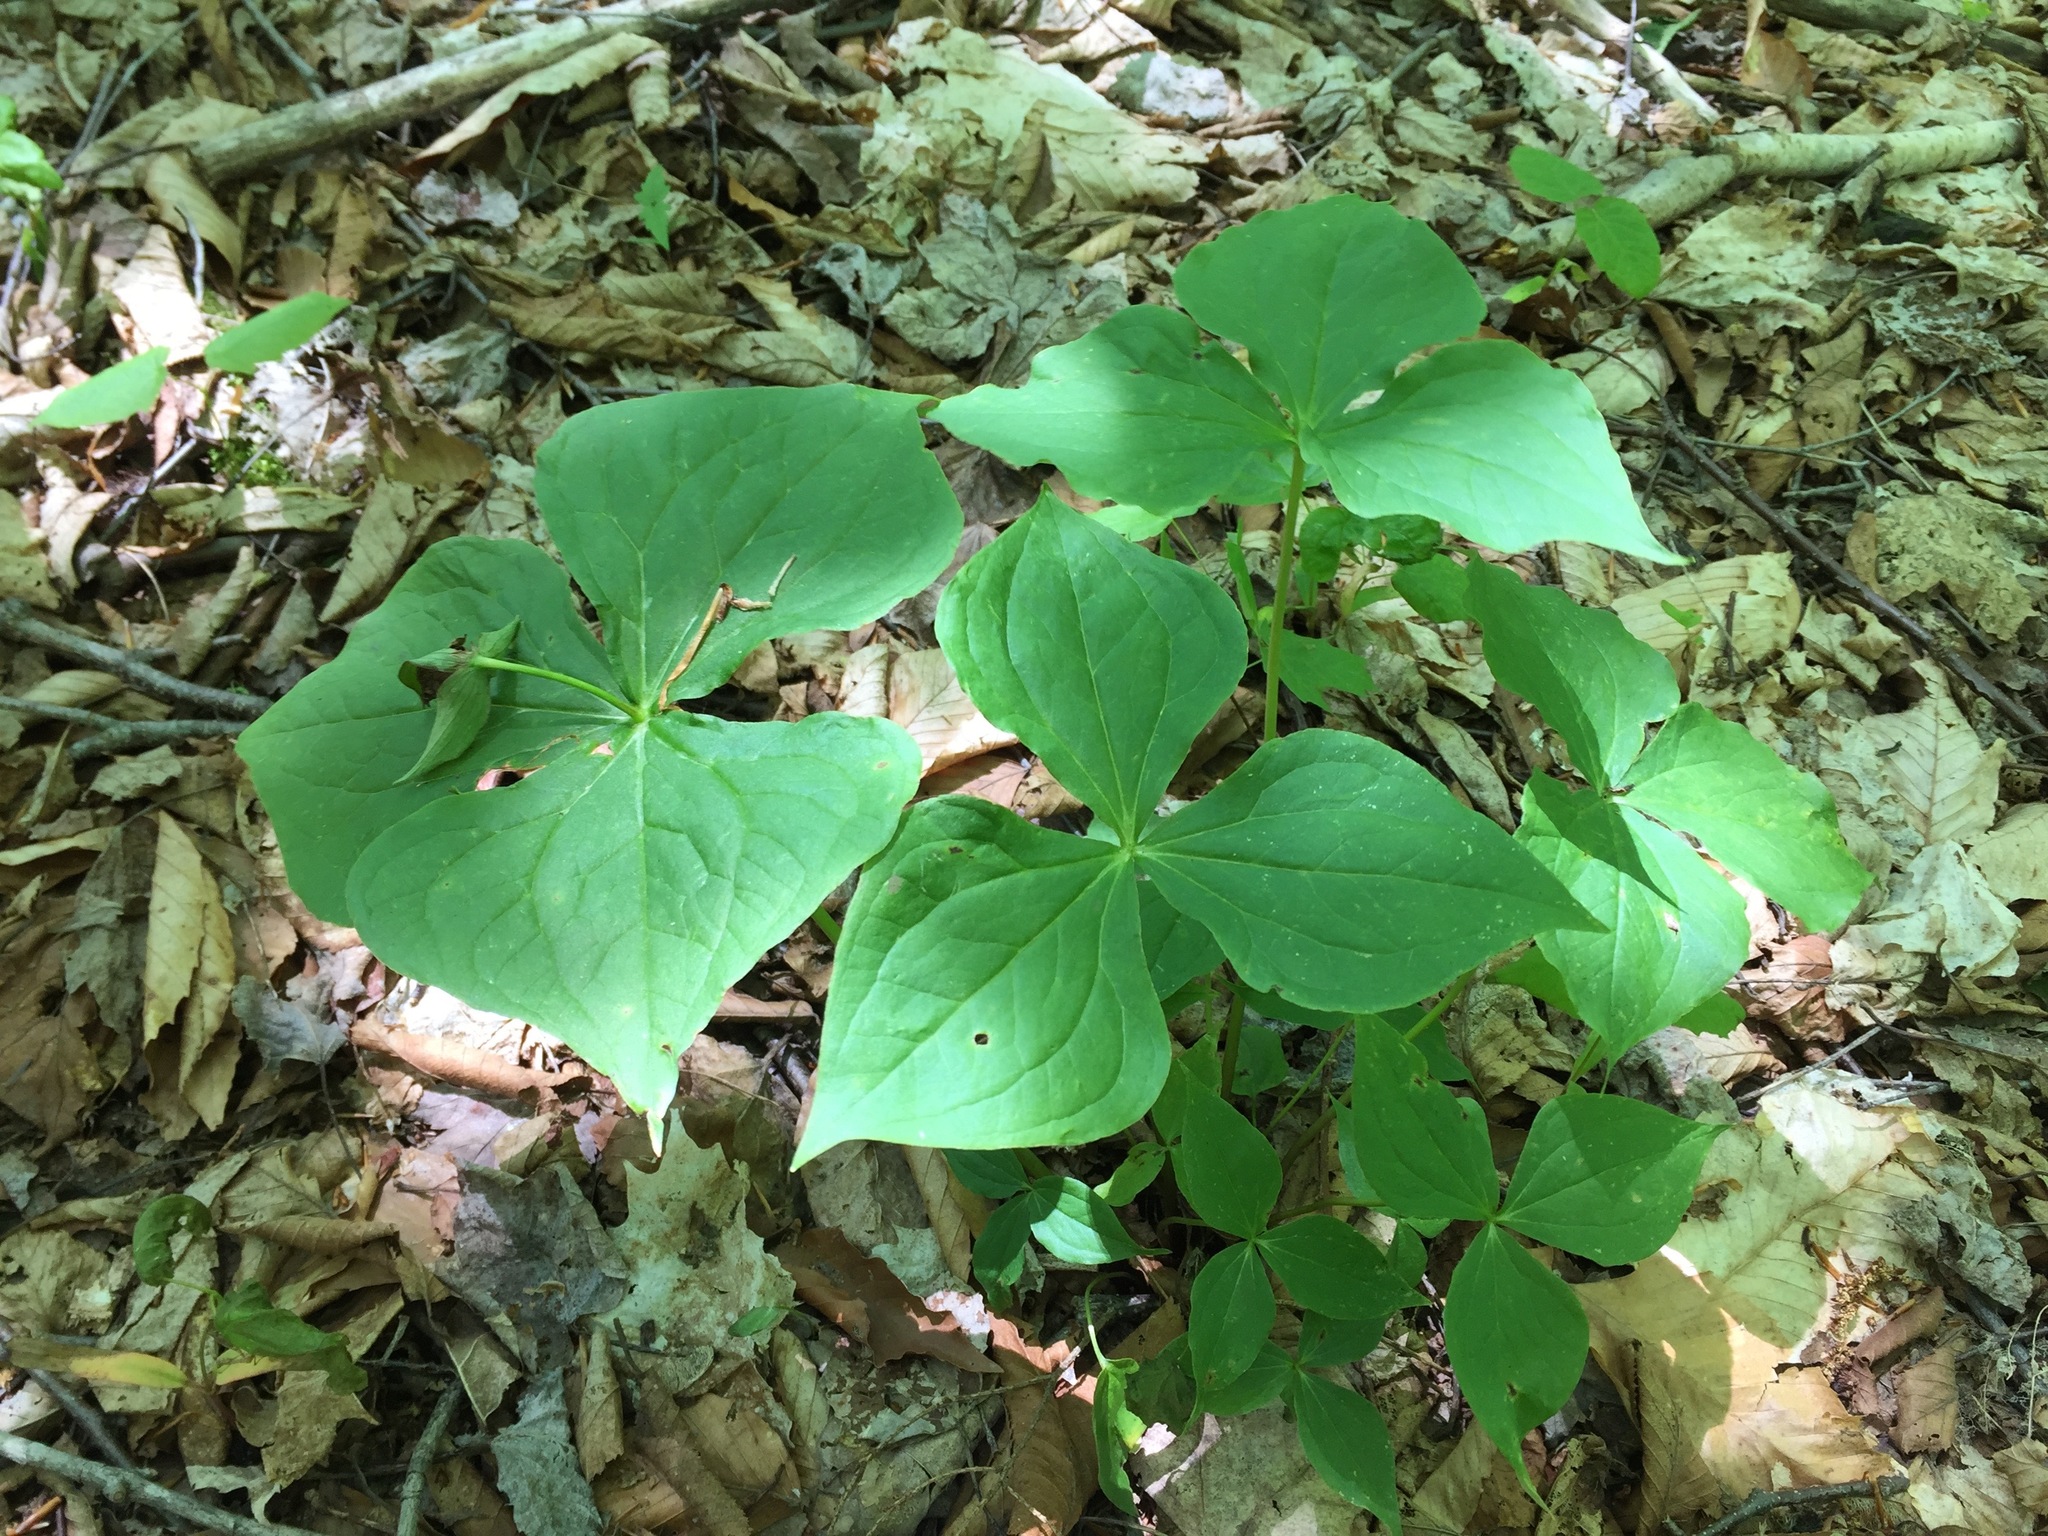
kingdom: Plantae
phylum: Tracheophyta
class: Liliopsida
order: Liliales
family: Melanthiaceae
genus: Trillium
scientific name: Trillium erectum
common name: Purple trillium
